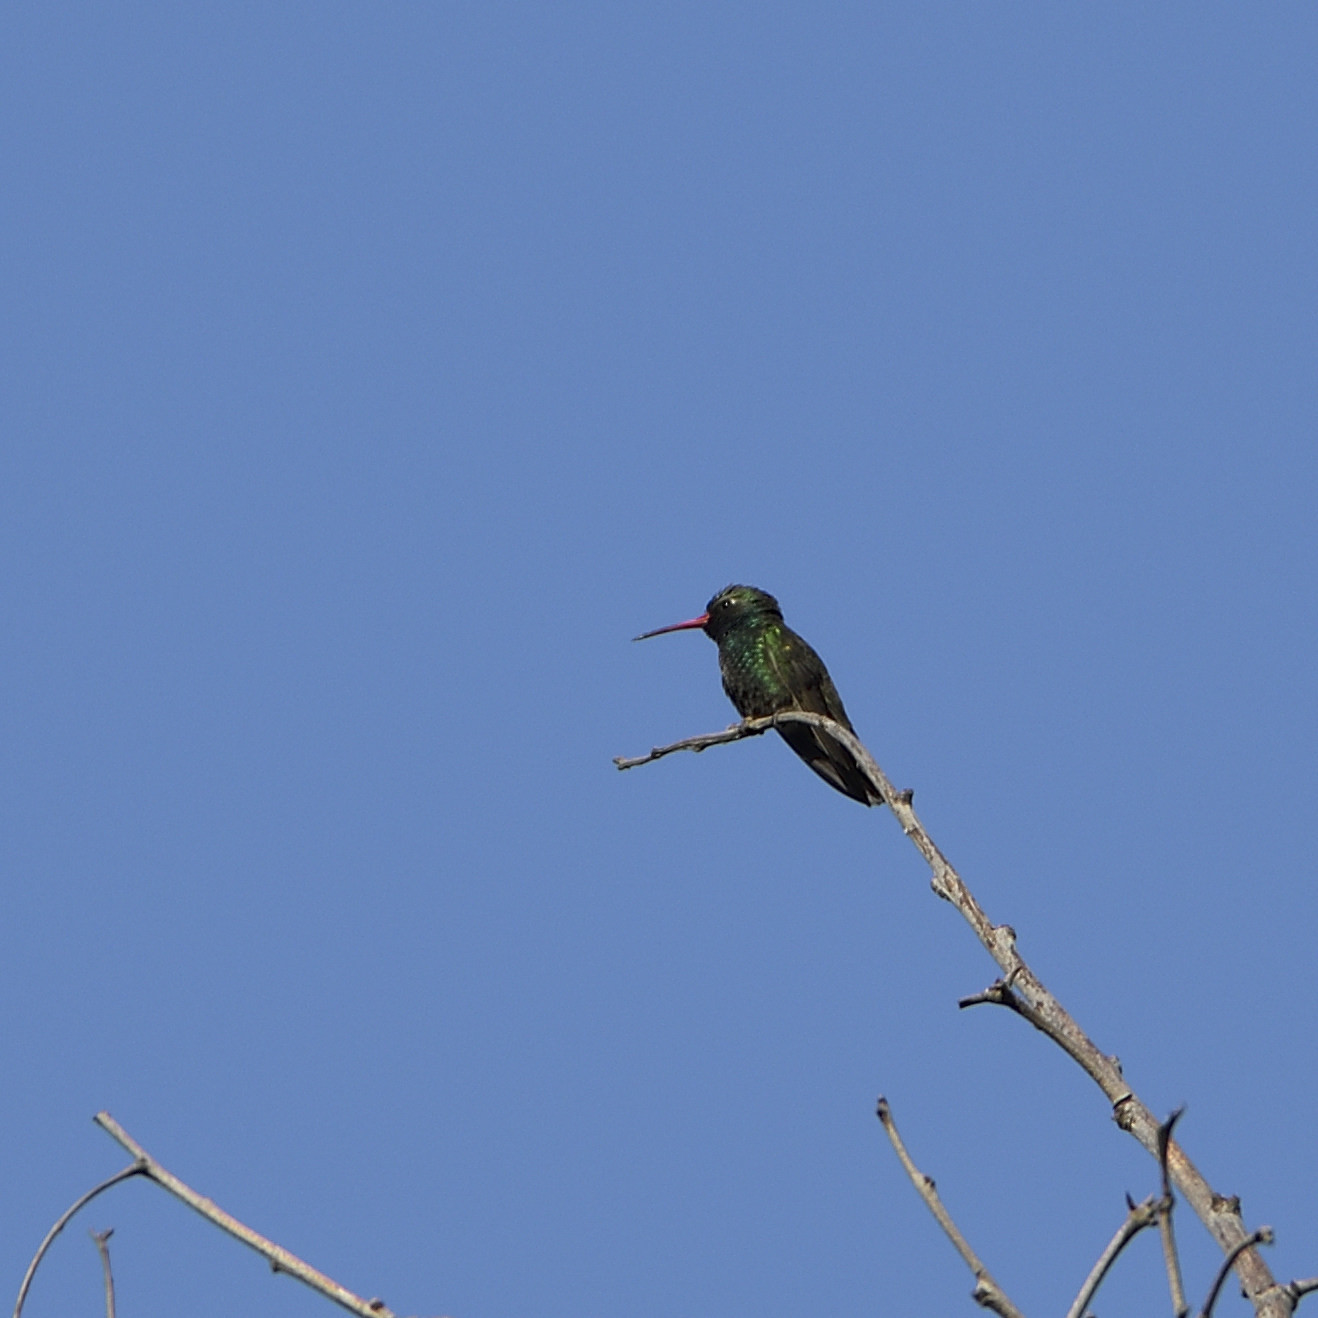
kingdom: Animalia
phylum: Chordata
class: Aves
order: Apodiformes
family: Trochilidae
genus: Cynanthus
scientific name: Cynanthus latirostris
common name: Broad-billed hummingbird
